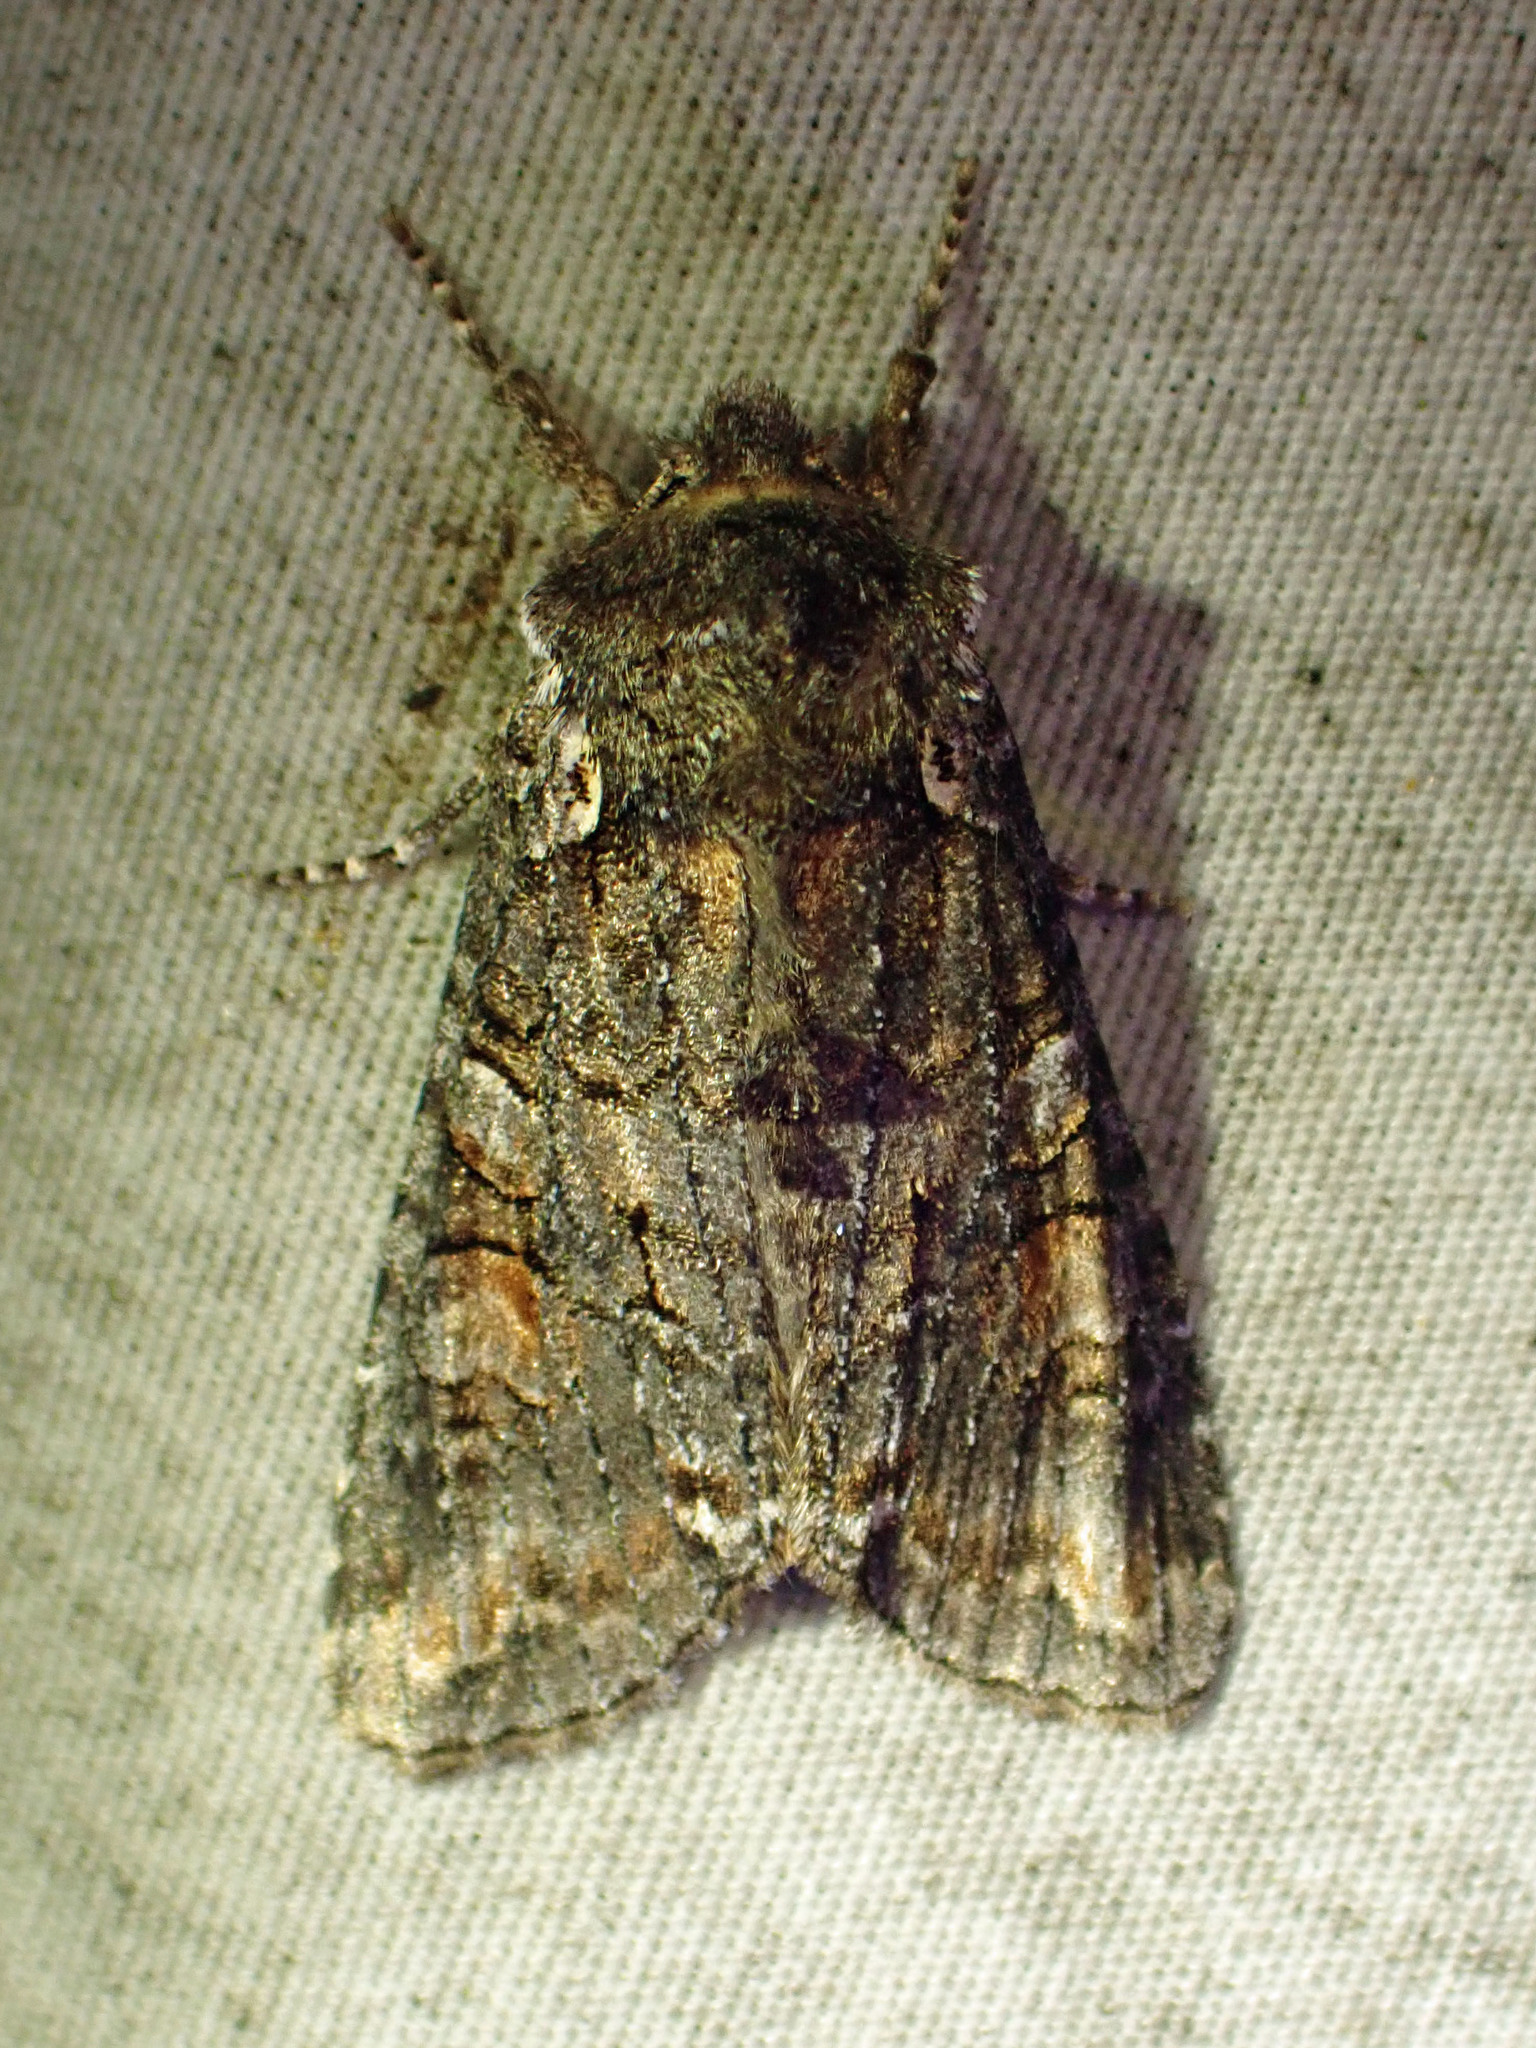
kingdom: Animalia
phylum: Arthropoda
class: Insecta
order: Lepidoptera
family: Noctuidae
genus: Lithophane
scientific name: Lithophane pexata
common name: Plush-naped pinion moth
